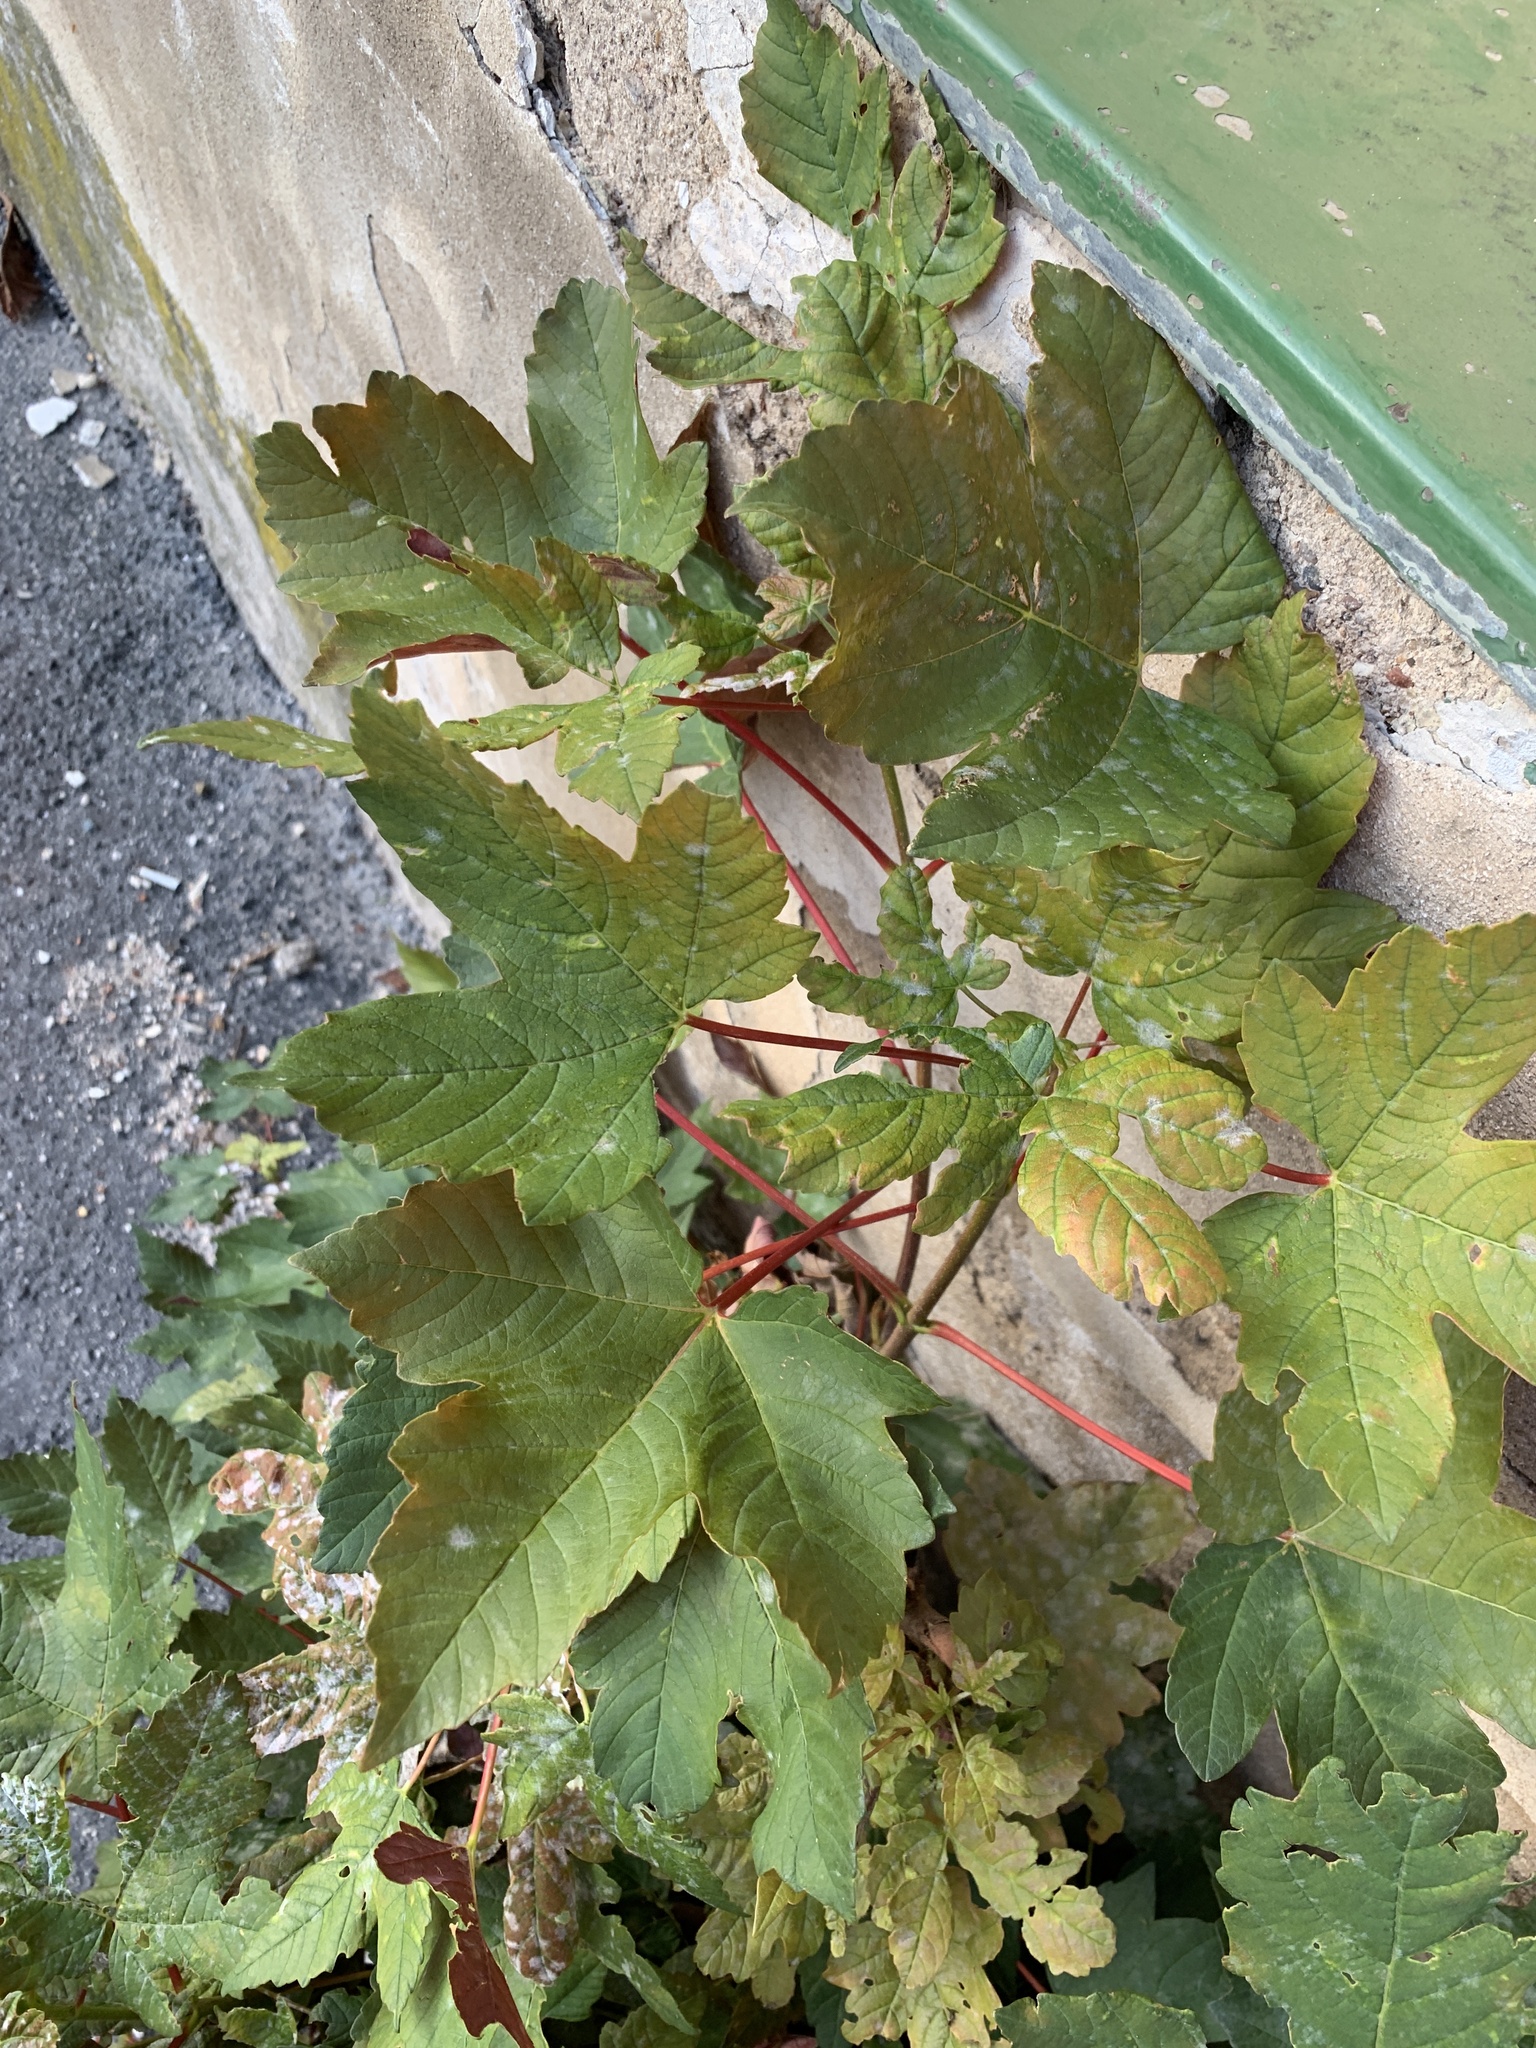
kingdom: Plantae
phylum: Tracheophyta
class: Magnoliopsida
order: Sapindales
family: Sapindaceae
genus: Acer
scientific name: Acer pseudoplatanus
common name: Sycamore
